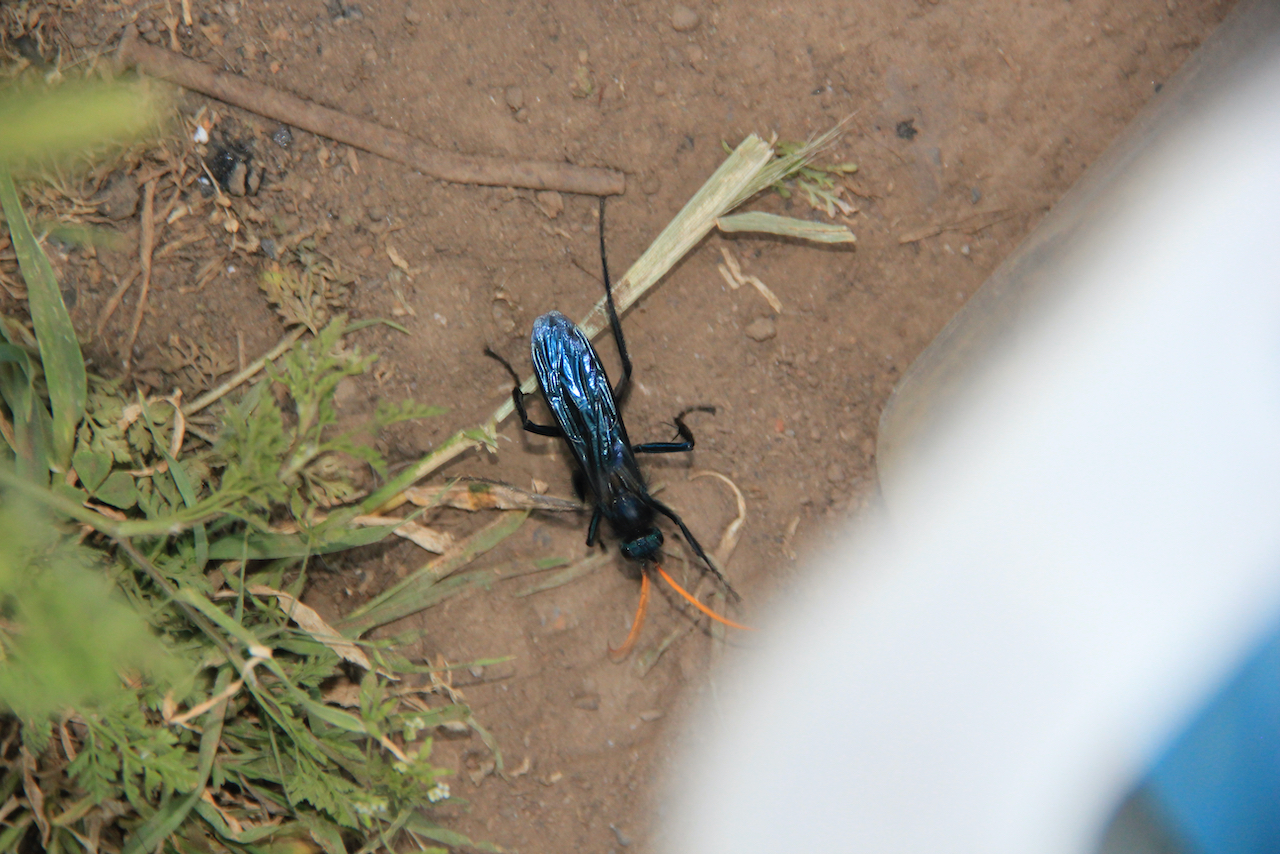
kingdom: Animalia
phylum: Arthropoda
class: Insecta
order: Hymenoptera
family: Pompilidae
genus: Pompilocalus
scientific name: Pompilocalus
